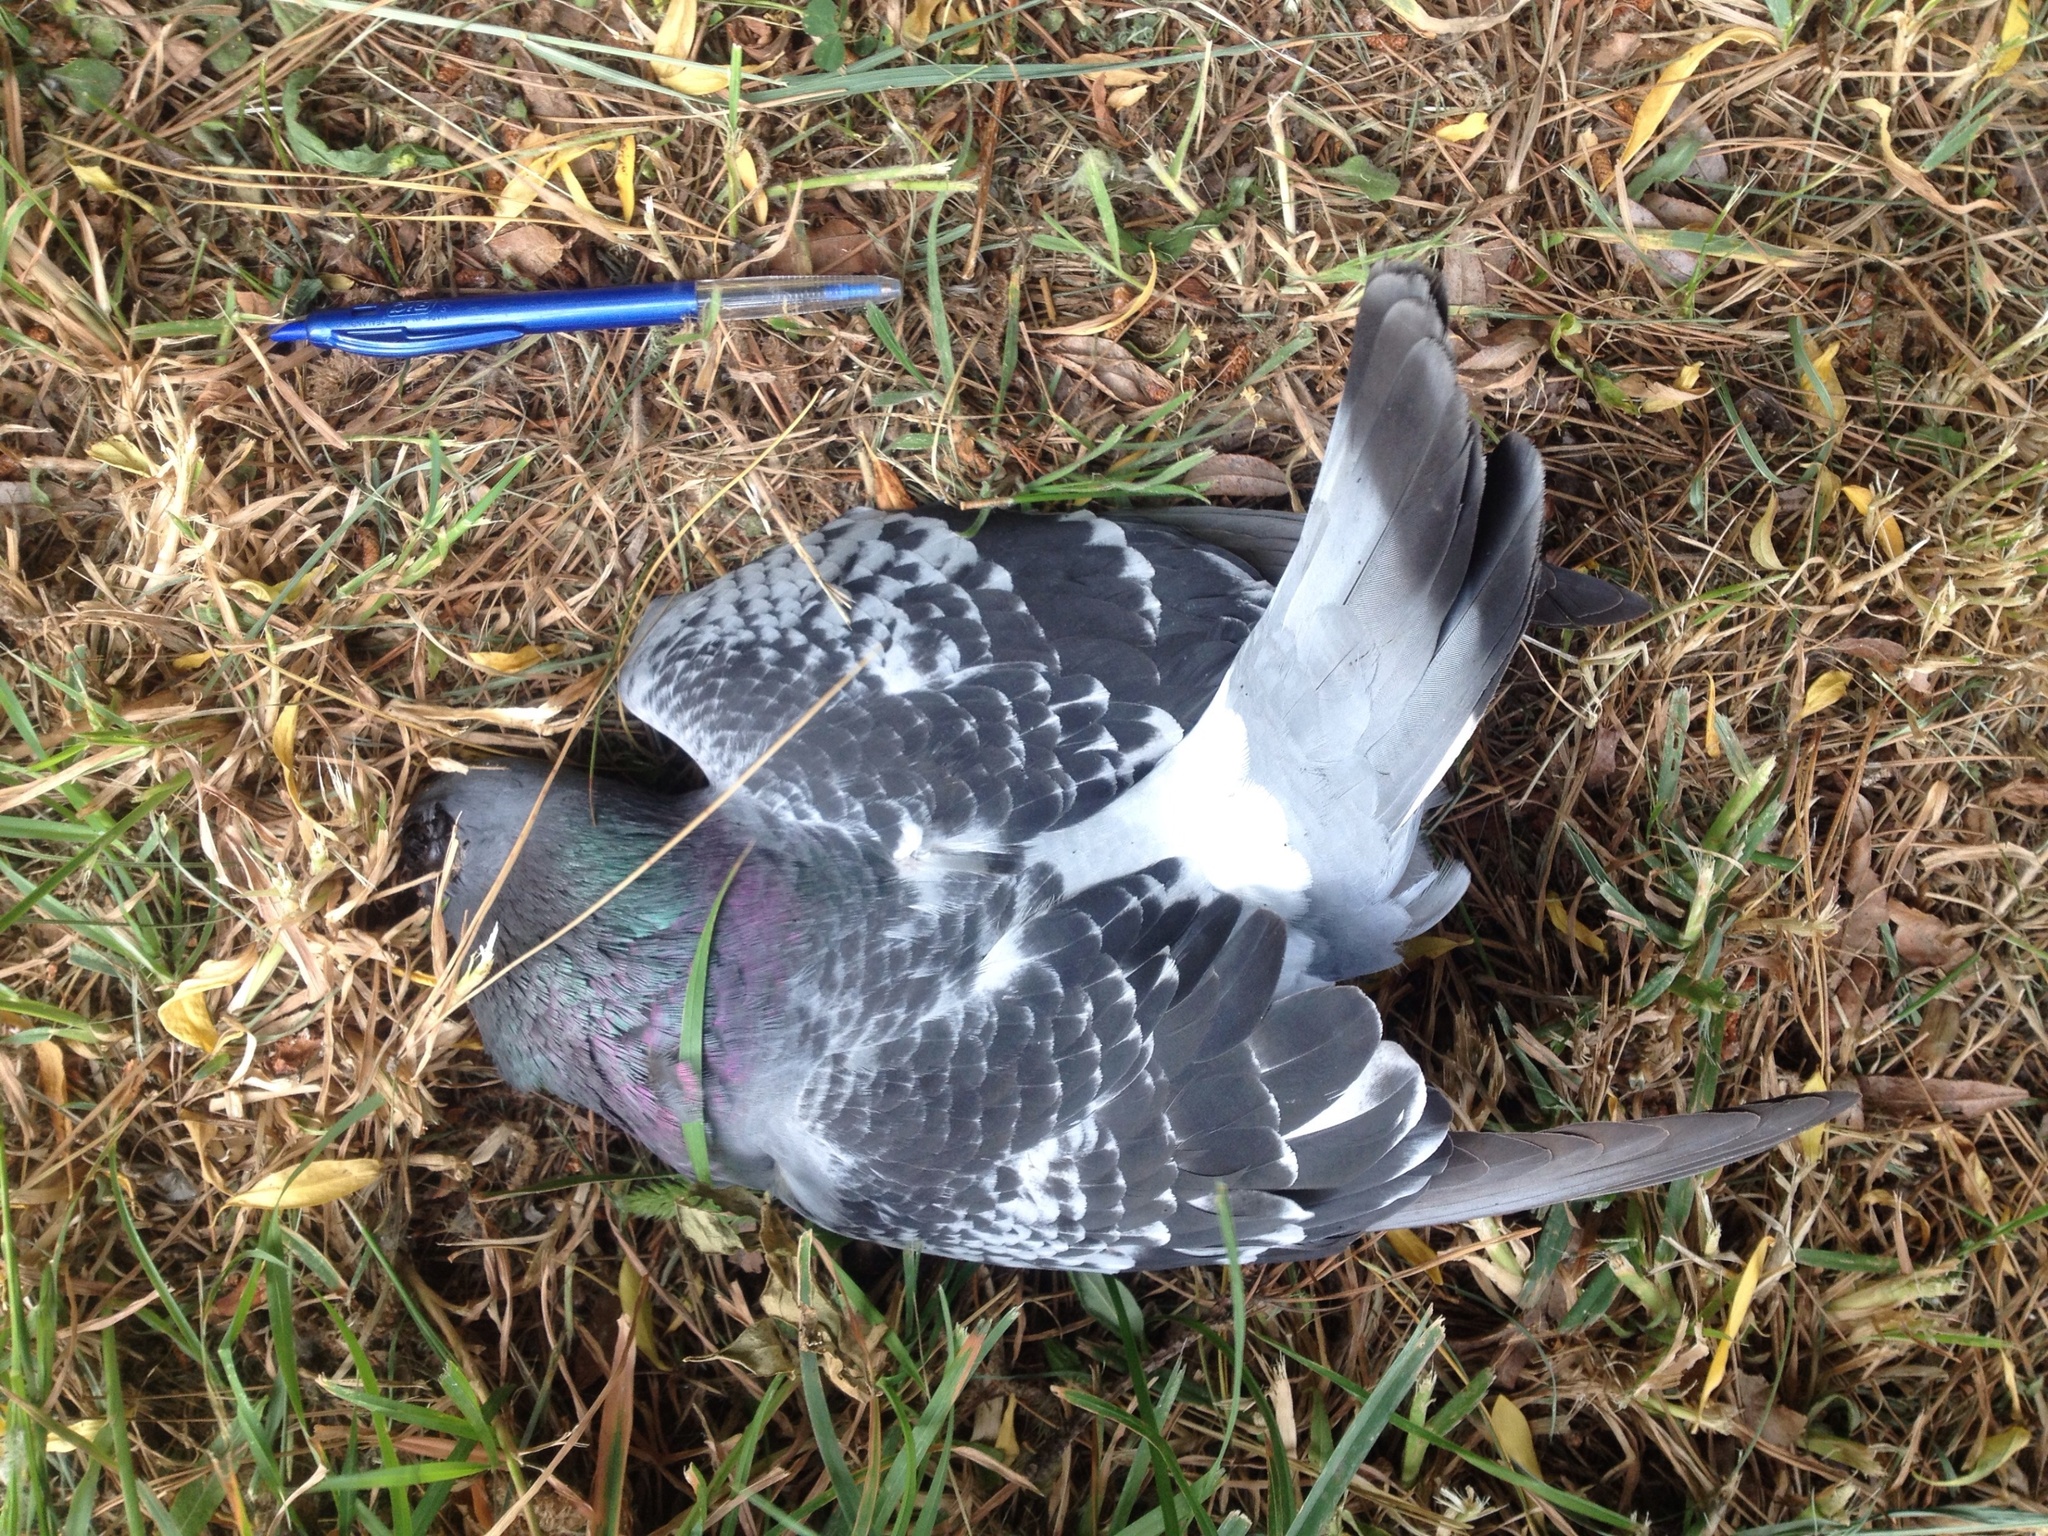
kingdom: Animalia
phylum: Chordata
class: Aves
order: Columbiformes
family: Columbidae
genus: Columba
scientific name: Columba livia
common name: Rock pigeon
